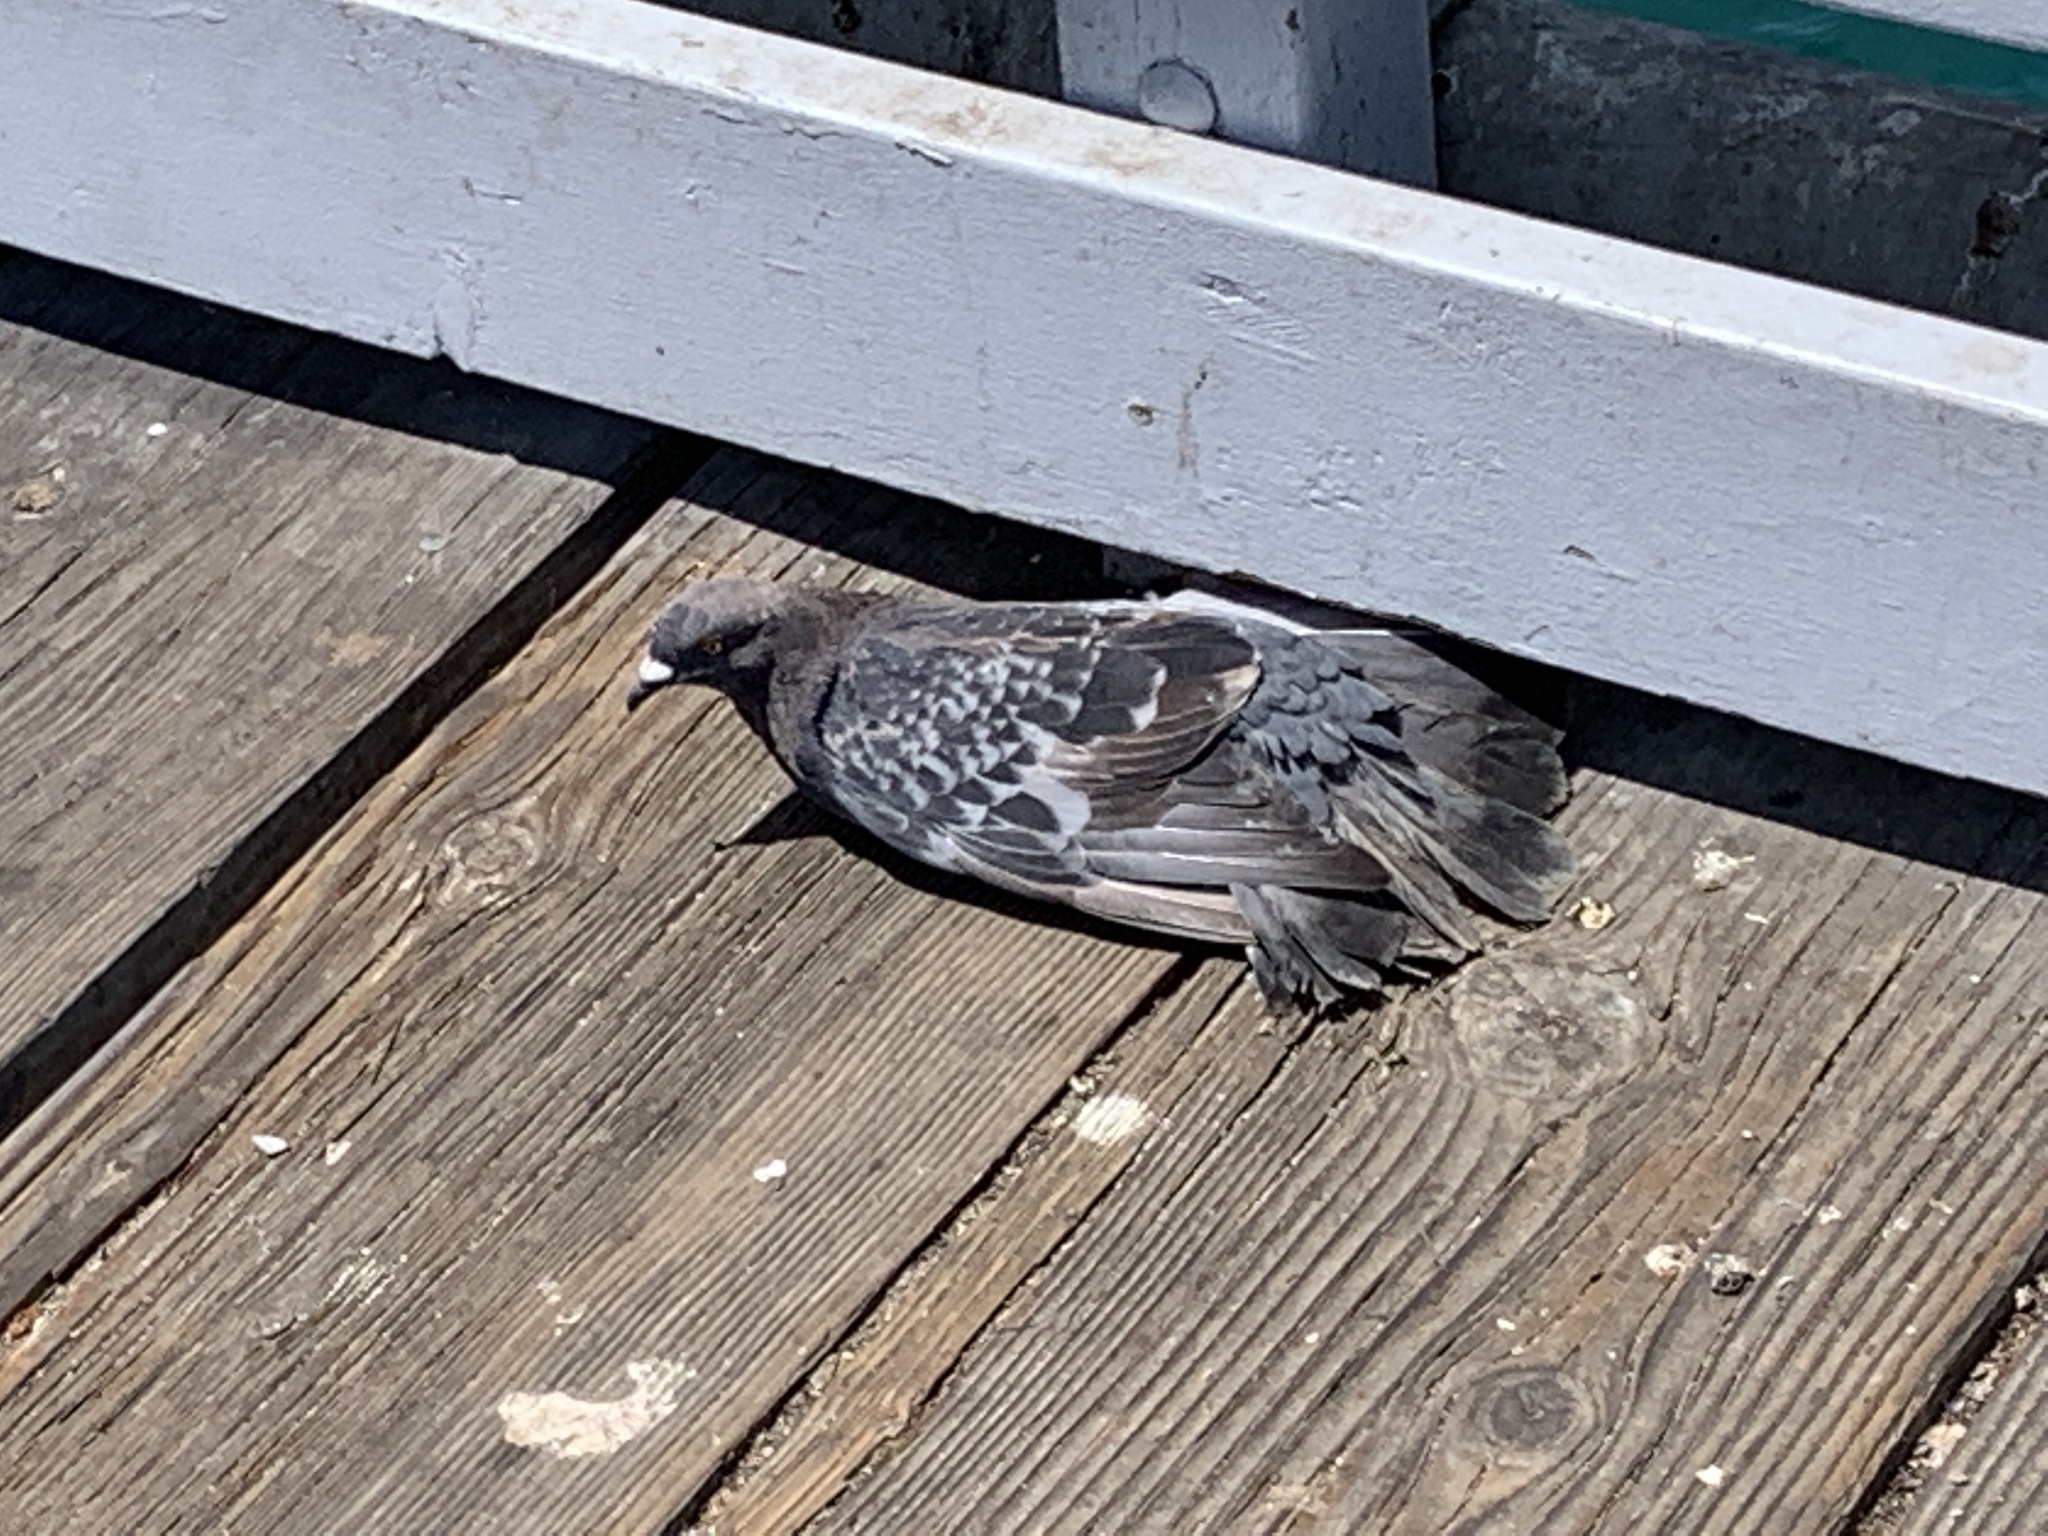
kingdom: Animalia
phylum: Chordata
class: Aves
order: Columbiformes
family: Columbidae
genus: Columba
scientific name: Columba livia
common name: Rock pigeon
